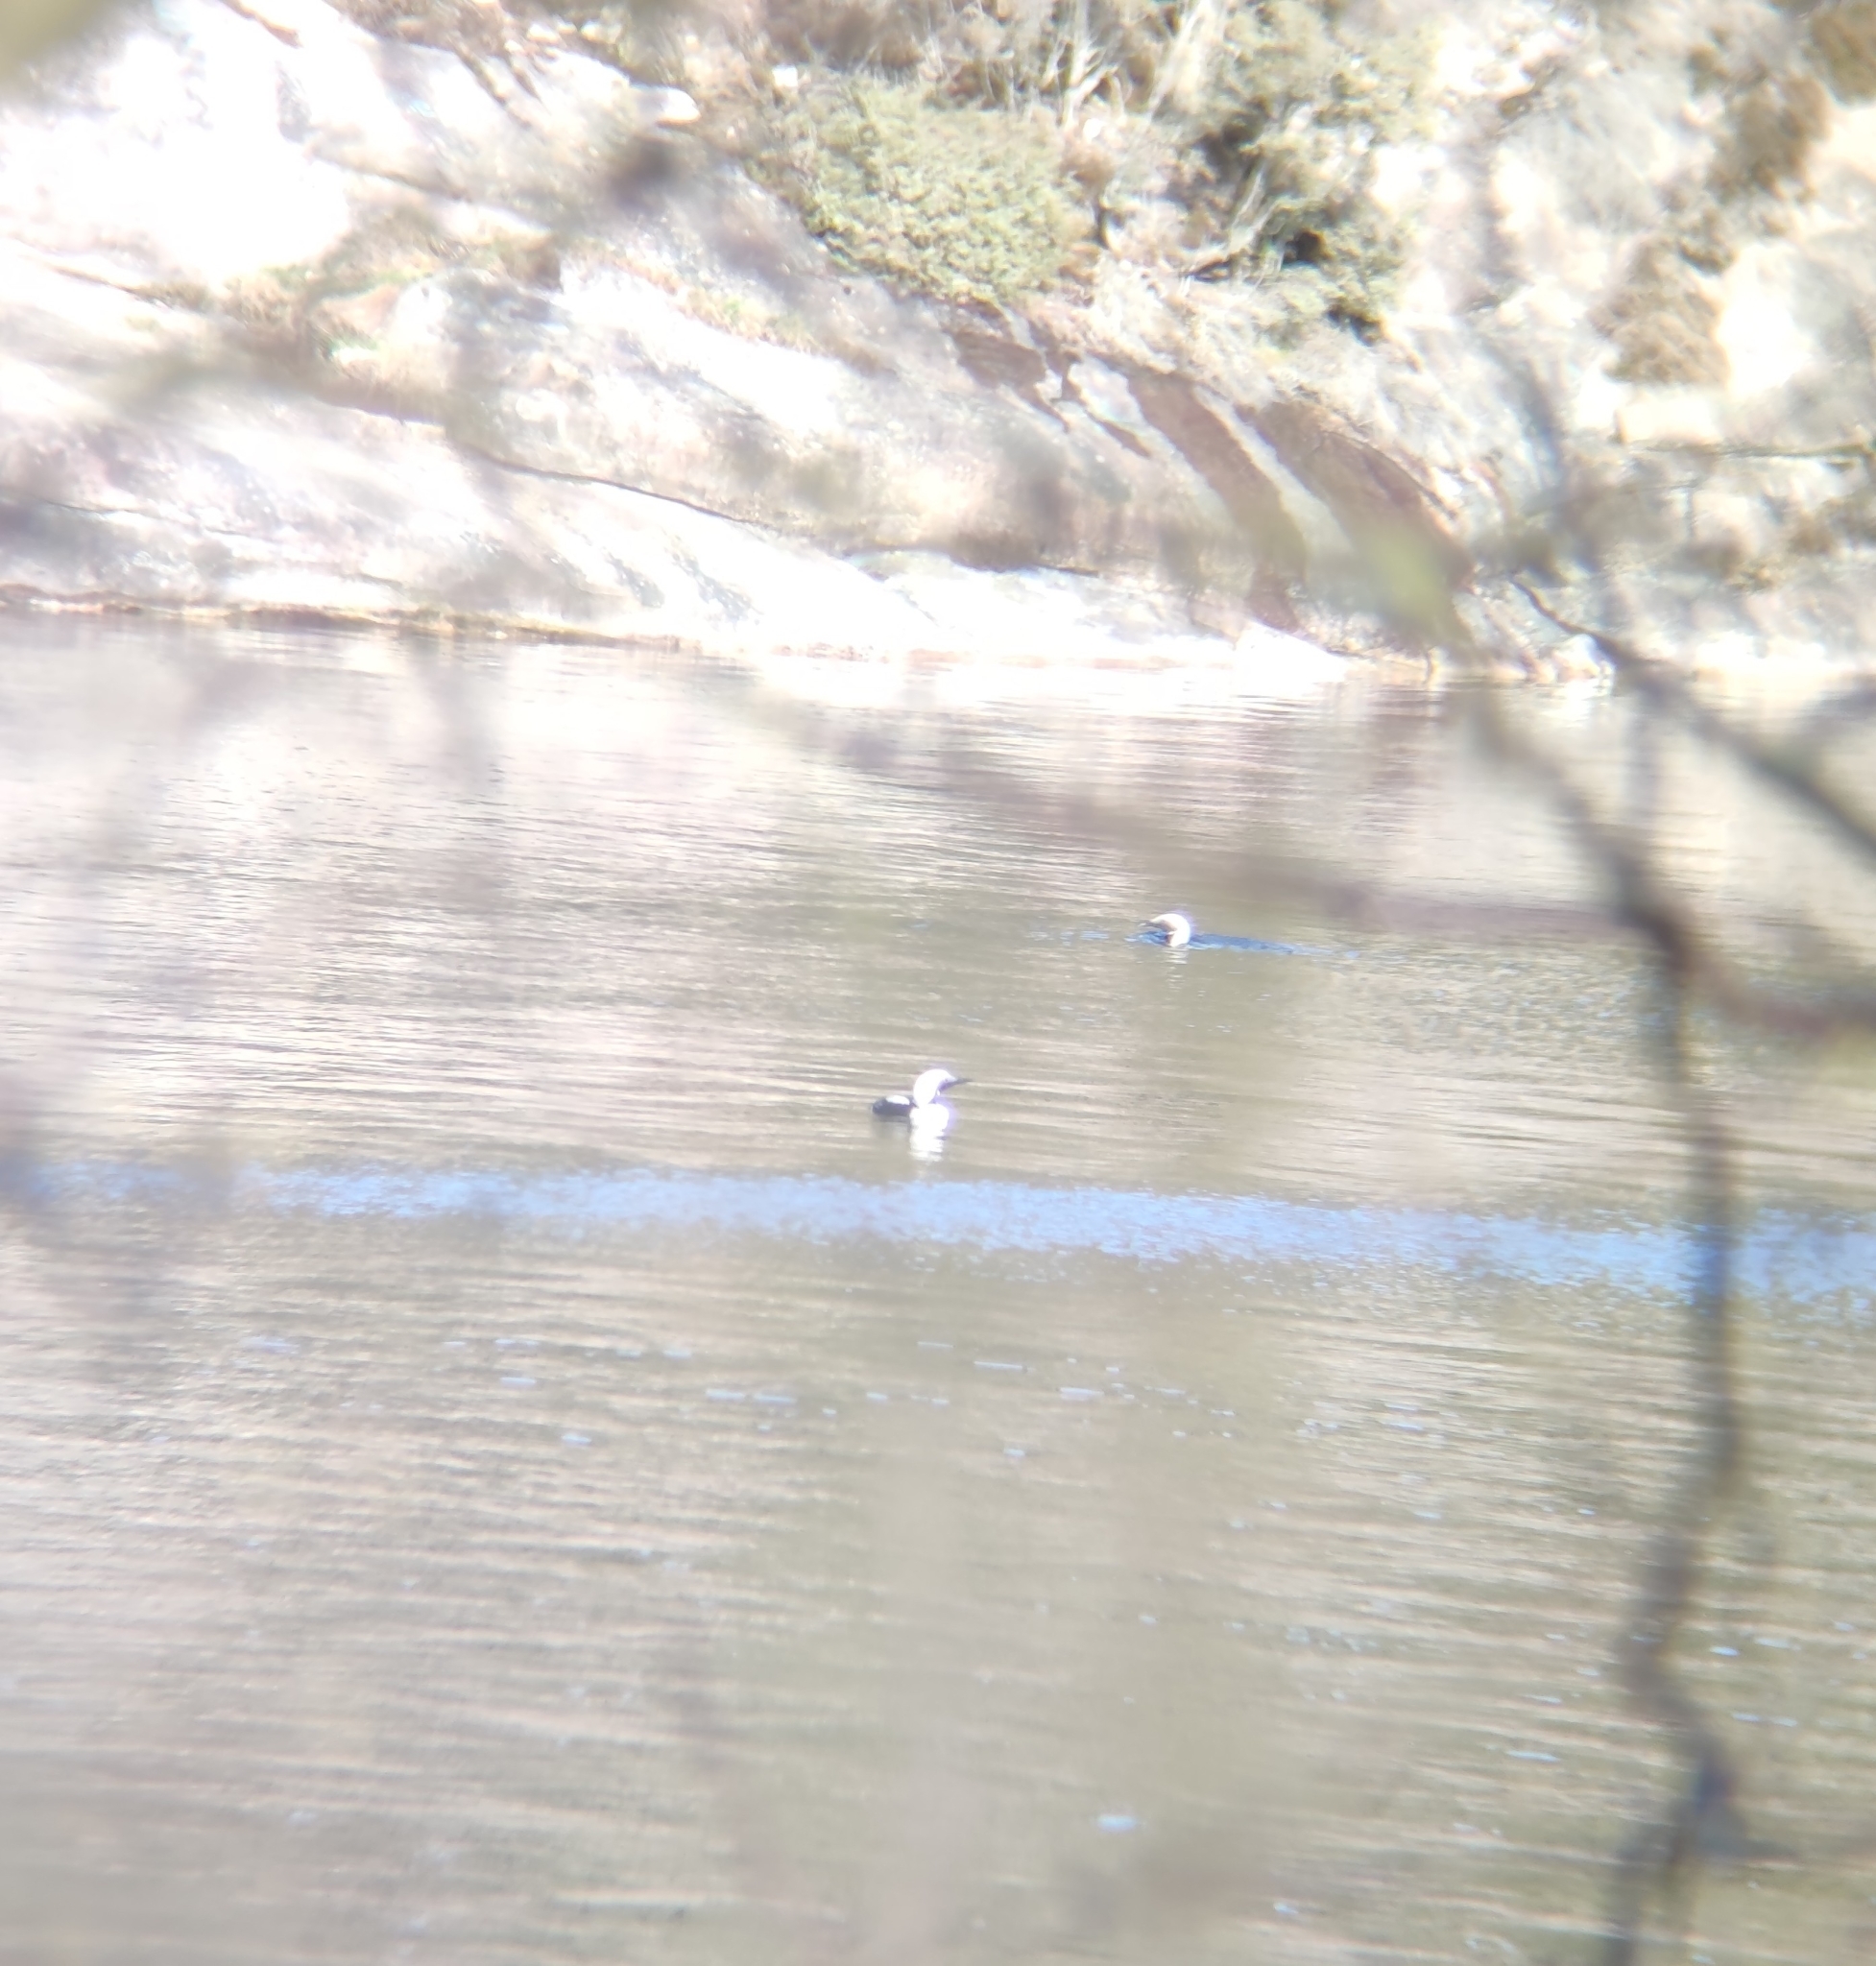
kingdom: Animalia
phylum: Chordata
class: Aves
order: Gaviiformes
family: Gaviidae
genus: Gavia
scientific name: Gavia arctica
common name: Black-throated loon
